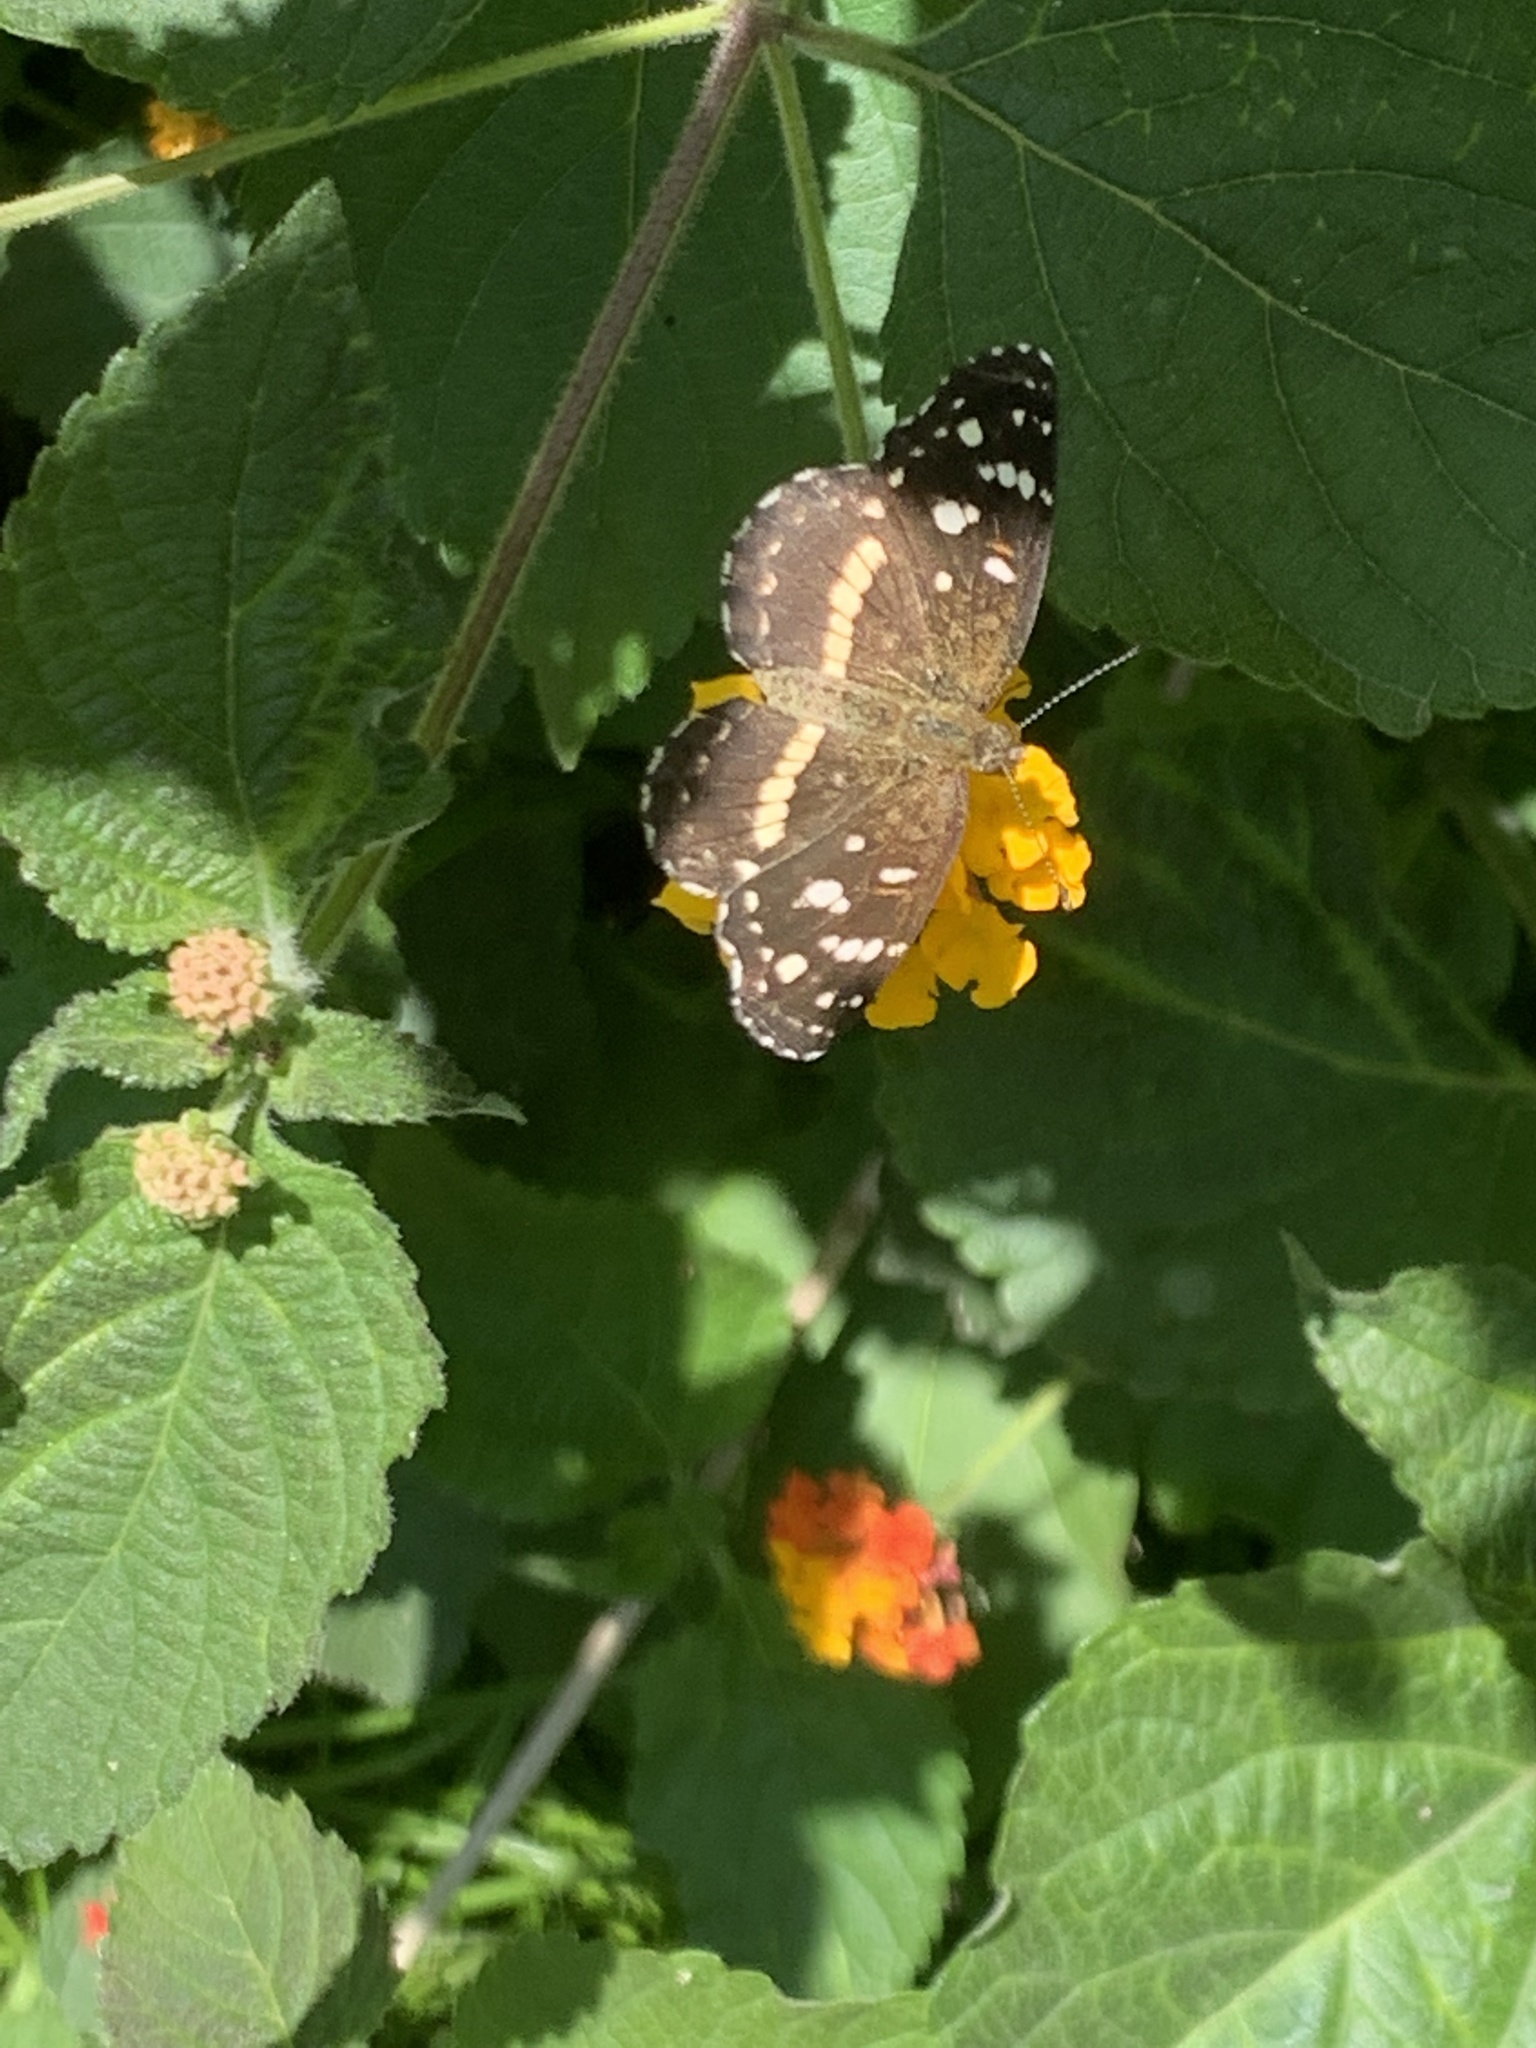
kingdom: Animalia
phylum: Arthropoda
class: Insecta
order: Lepidoptera
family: Nymphalidae
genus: Ortilia
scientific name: Ortilia ithra
